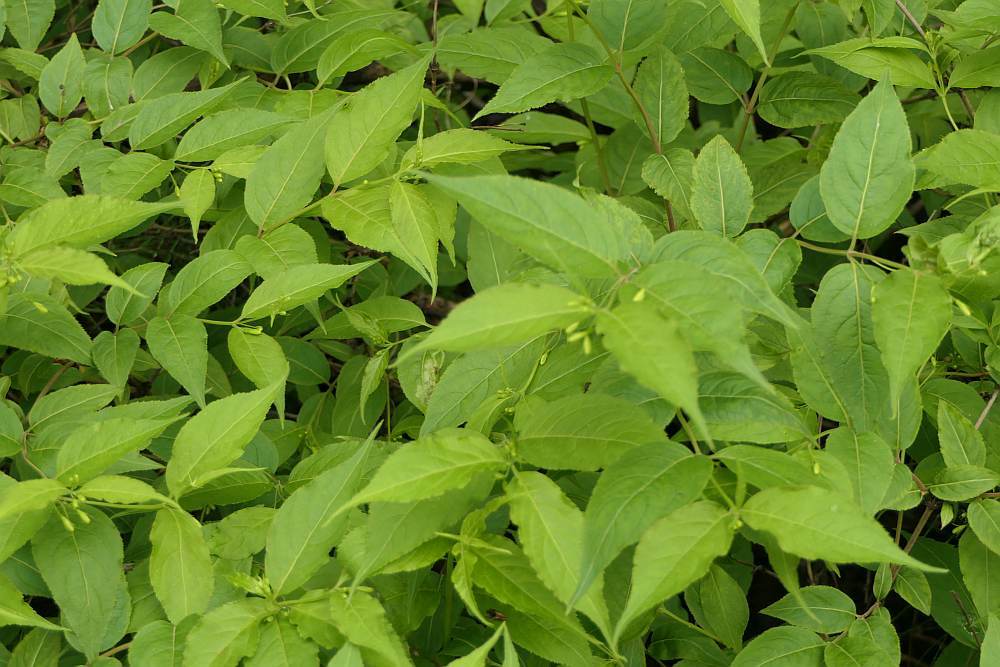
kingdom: Plantae
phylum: Tracheophyta
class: Magnoliopsida
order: Dipsacales
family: Caprifoliaceae
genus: Diervilla
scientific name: Diervilla lonicera
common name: Bush-honeysuckle
